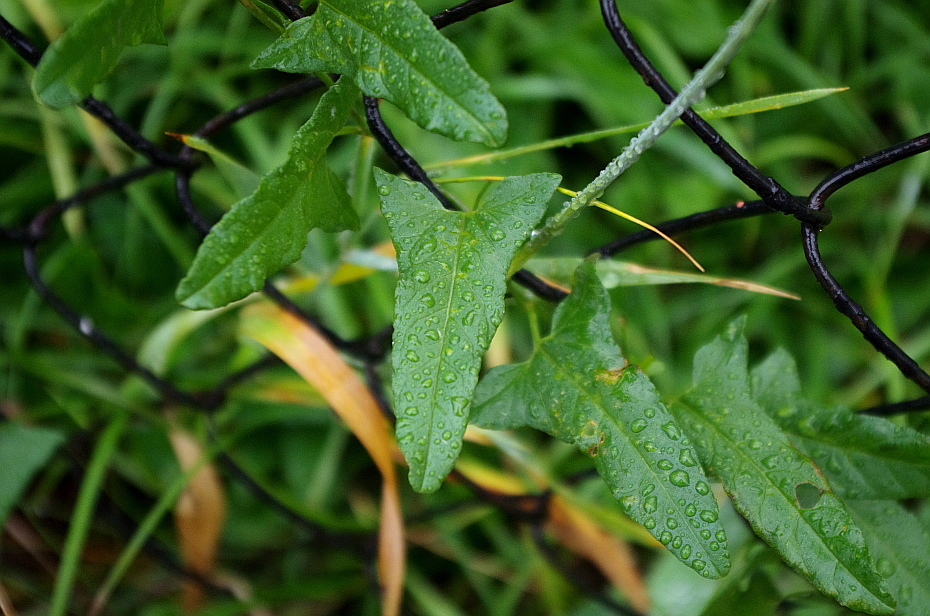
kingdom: Plantae
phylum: Tracheophyta
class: Magnoliopsida
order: Solanales
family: Convolvulaceae
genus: Convolvulus
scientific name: Convolvulus arvensis
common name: Field bindweed
